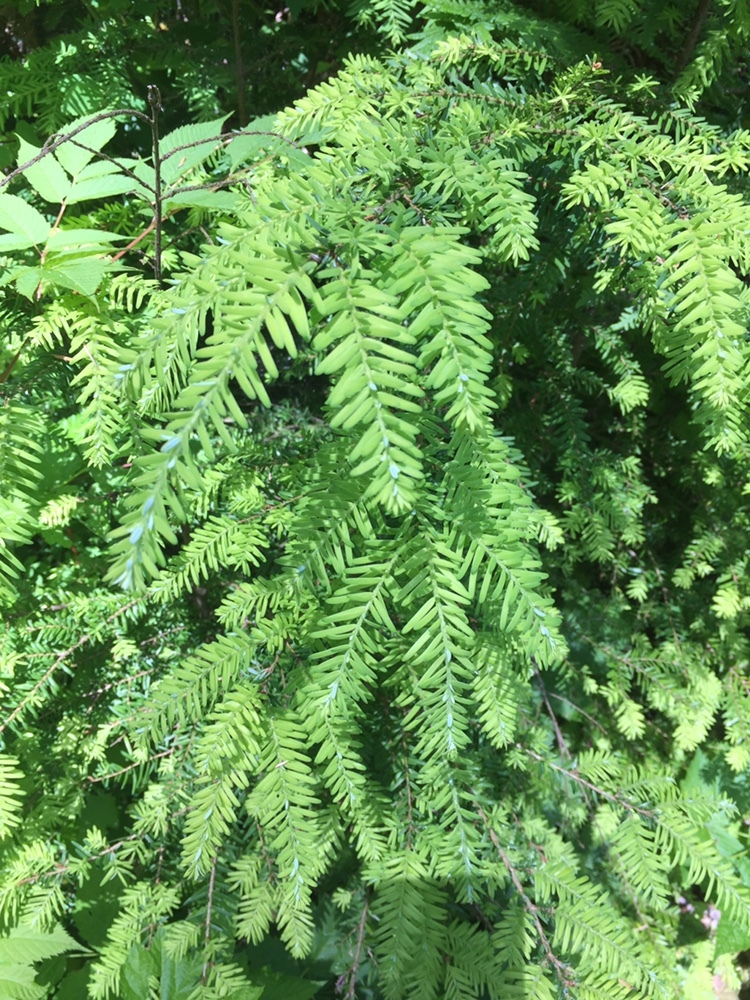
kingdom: Plantae
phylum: Tracheophyta
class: Pinopsida
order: Pinales
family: Pinaceae
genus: Tsuga
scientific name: Tsuga heterophylla
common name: Western hemlock
